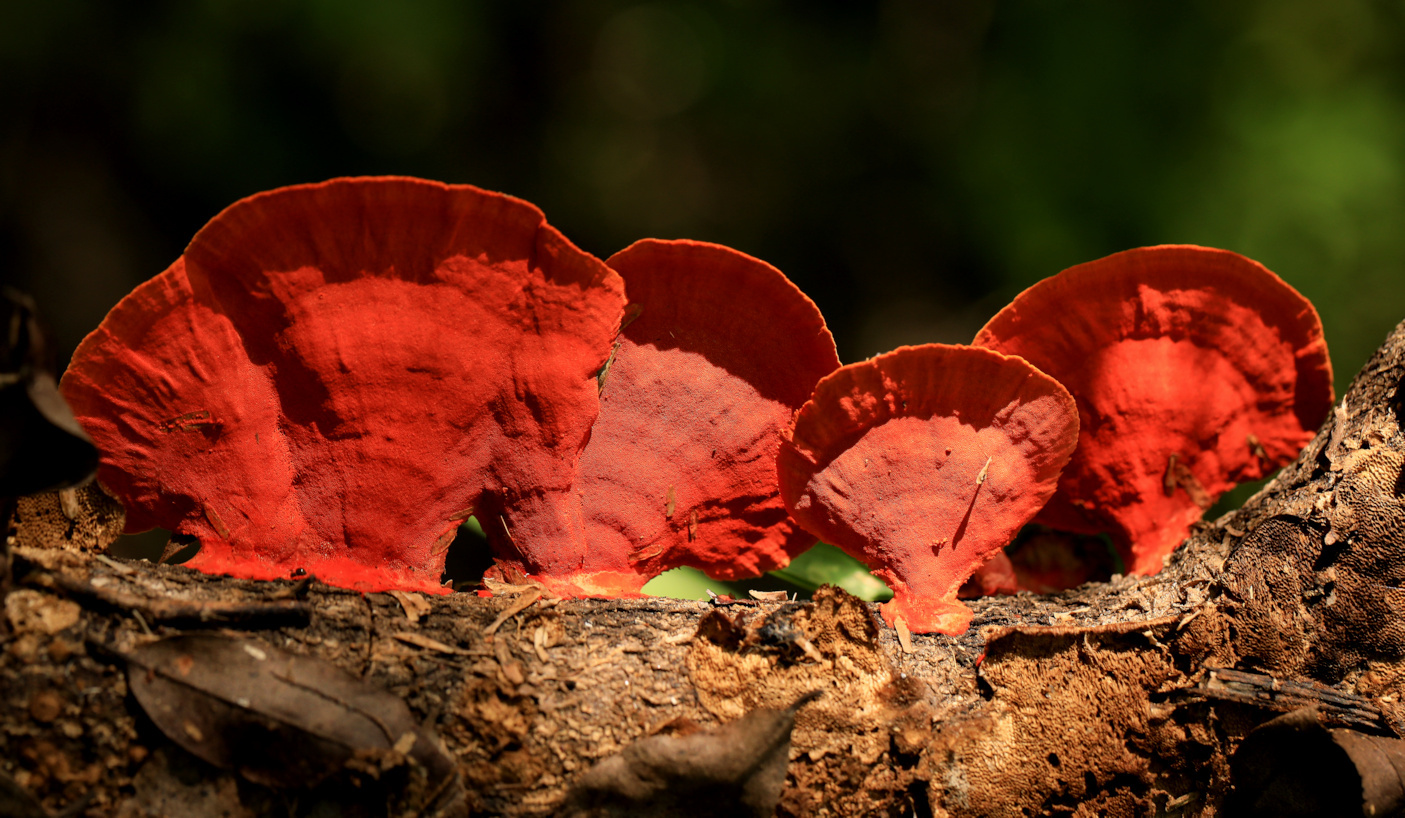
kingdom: Fungi
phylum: Basidiomycota
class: Agaricomycetes
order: Polyporales
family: Polyporaceae
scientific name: Polyporaceae
